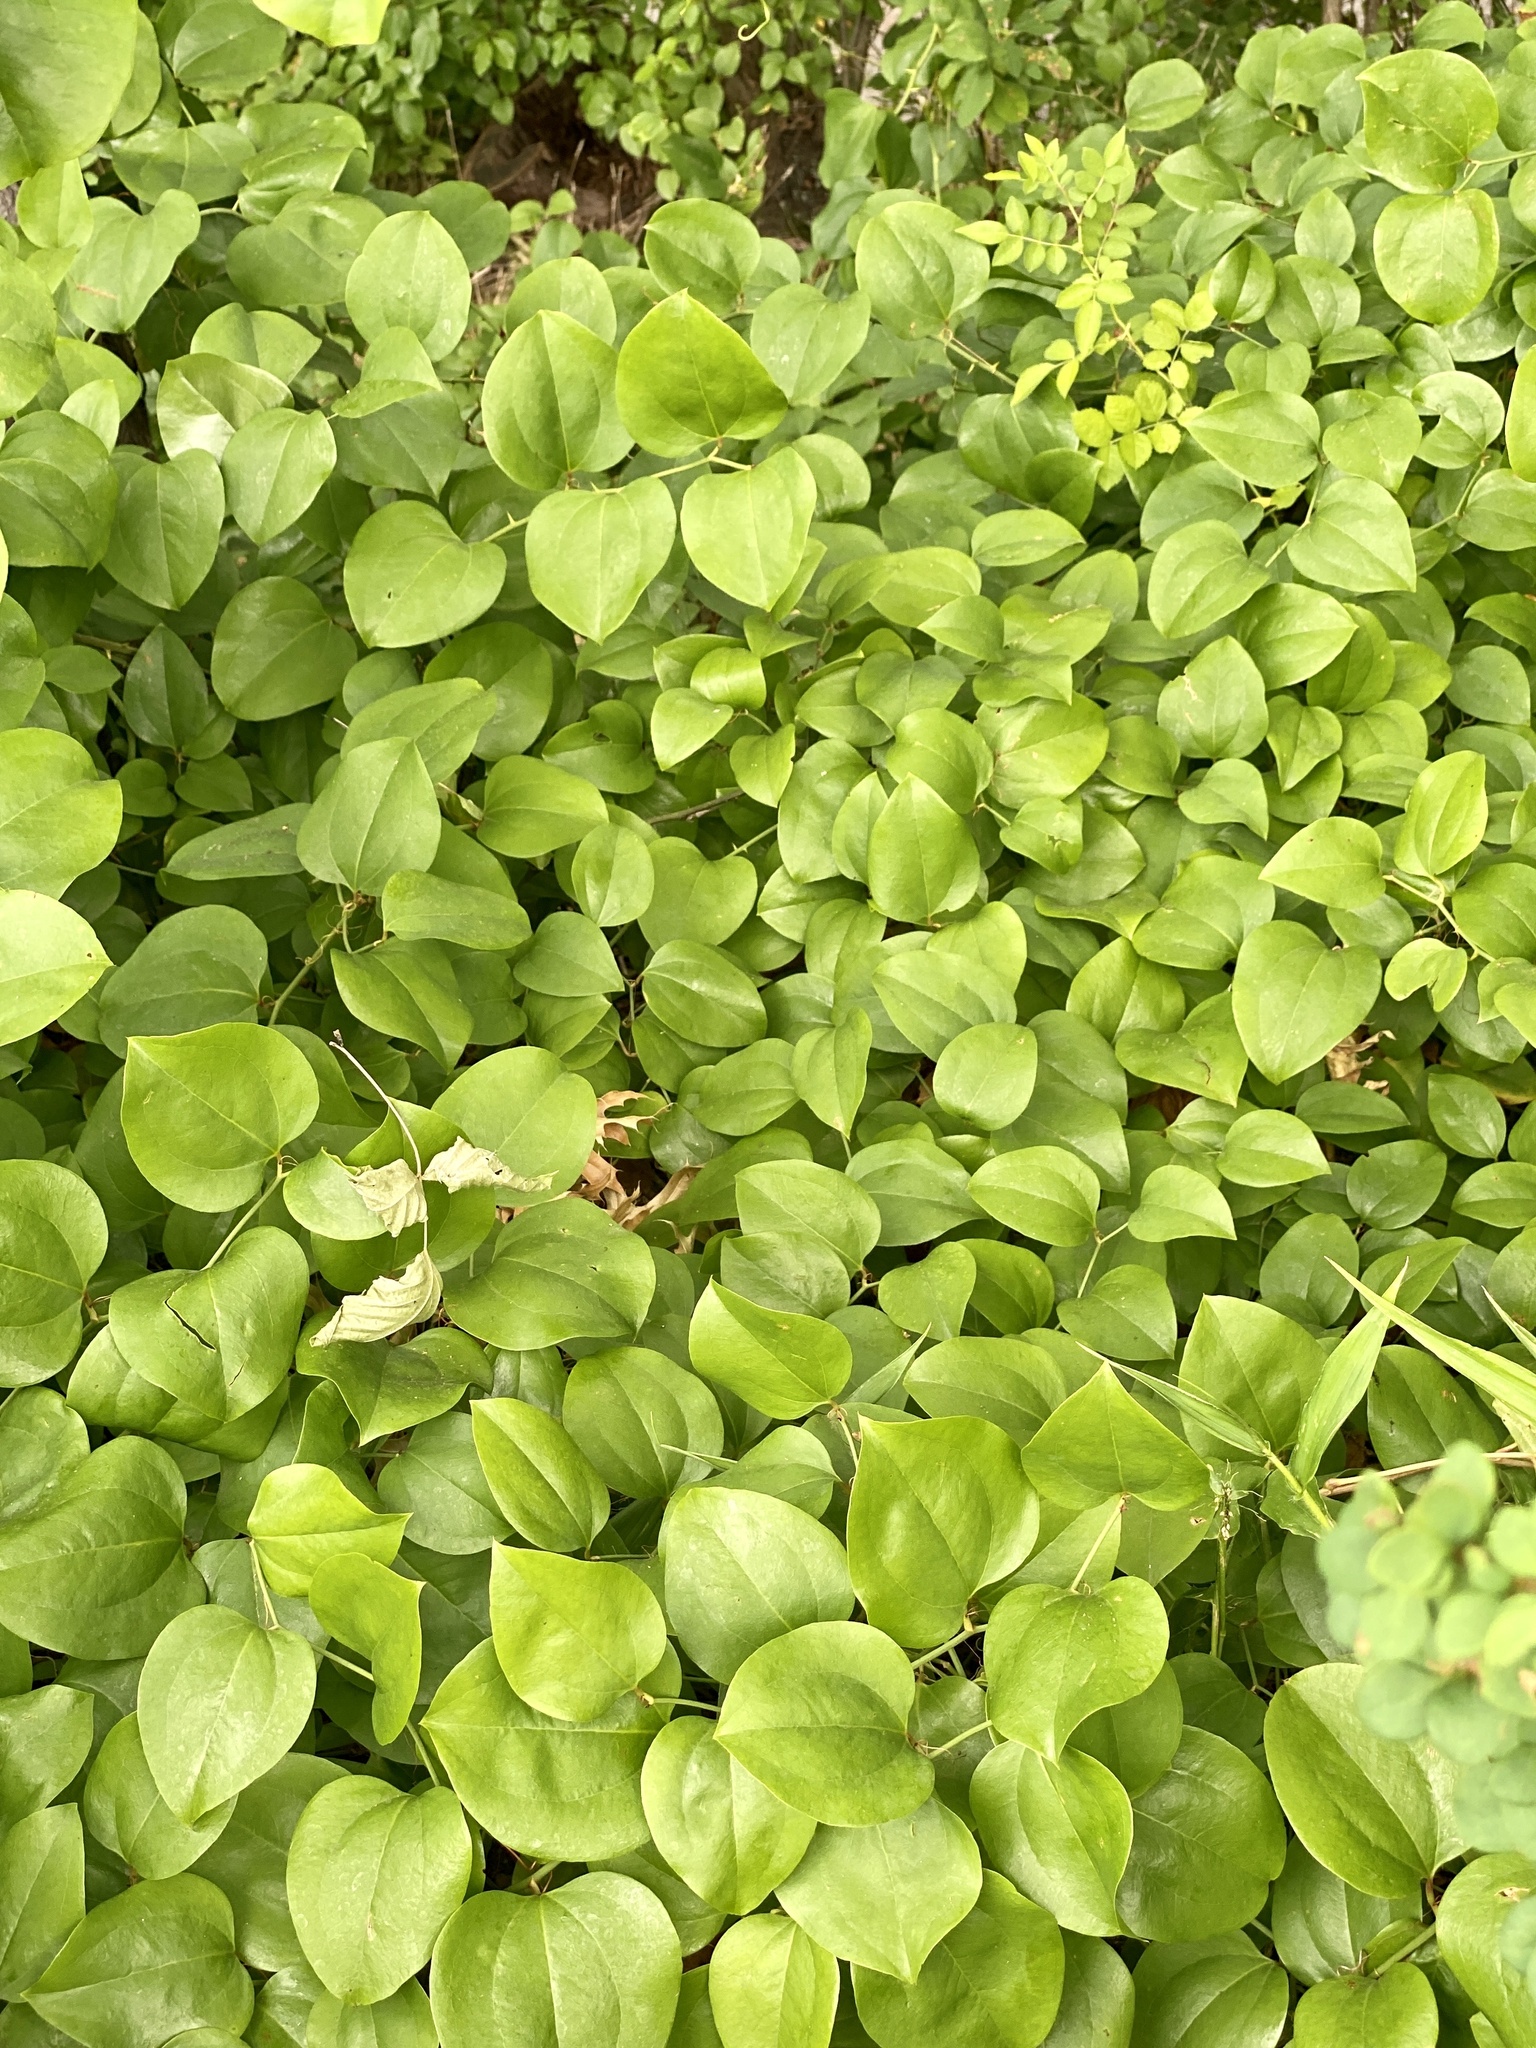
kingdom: Plantae
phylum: Tracheophyta
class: Liliopsida
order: Liliales
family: Smilacaceae
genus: Smilax
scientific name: Smilax rotundifolia
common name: Bullbriar
